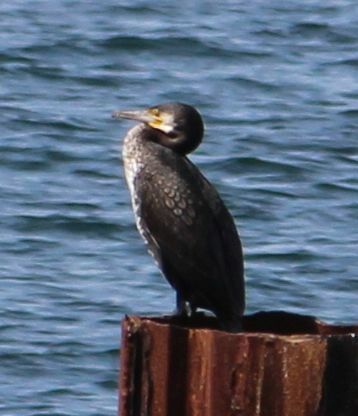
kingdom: Animalia
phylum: Chordata
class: Aves
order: Suliformes
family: Phalacrocoracidae
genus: Phalacrocorax
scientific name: Phalacrocorax carbo
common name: Great cormorant
